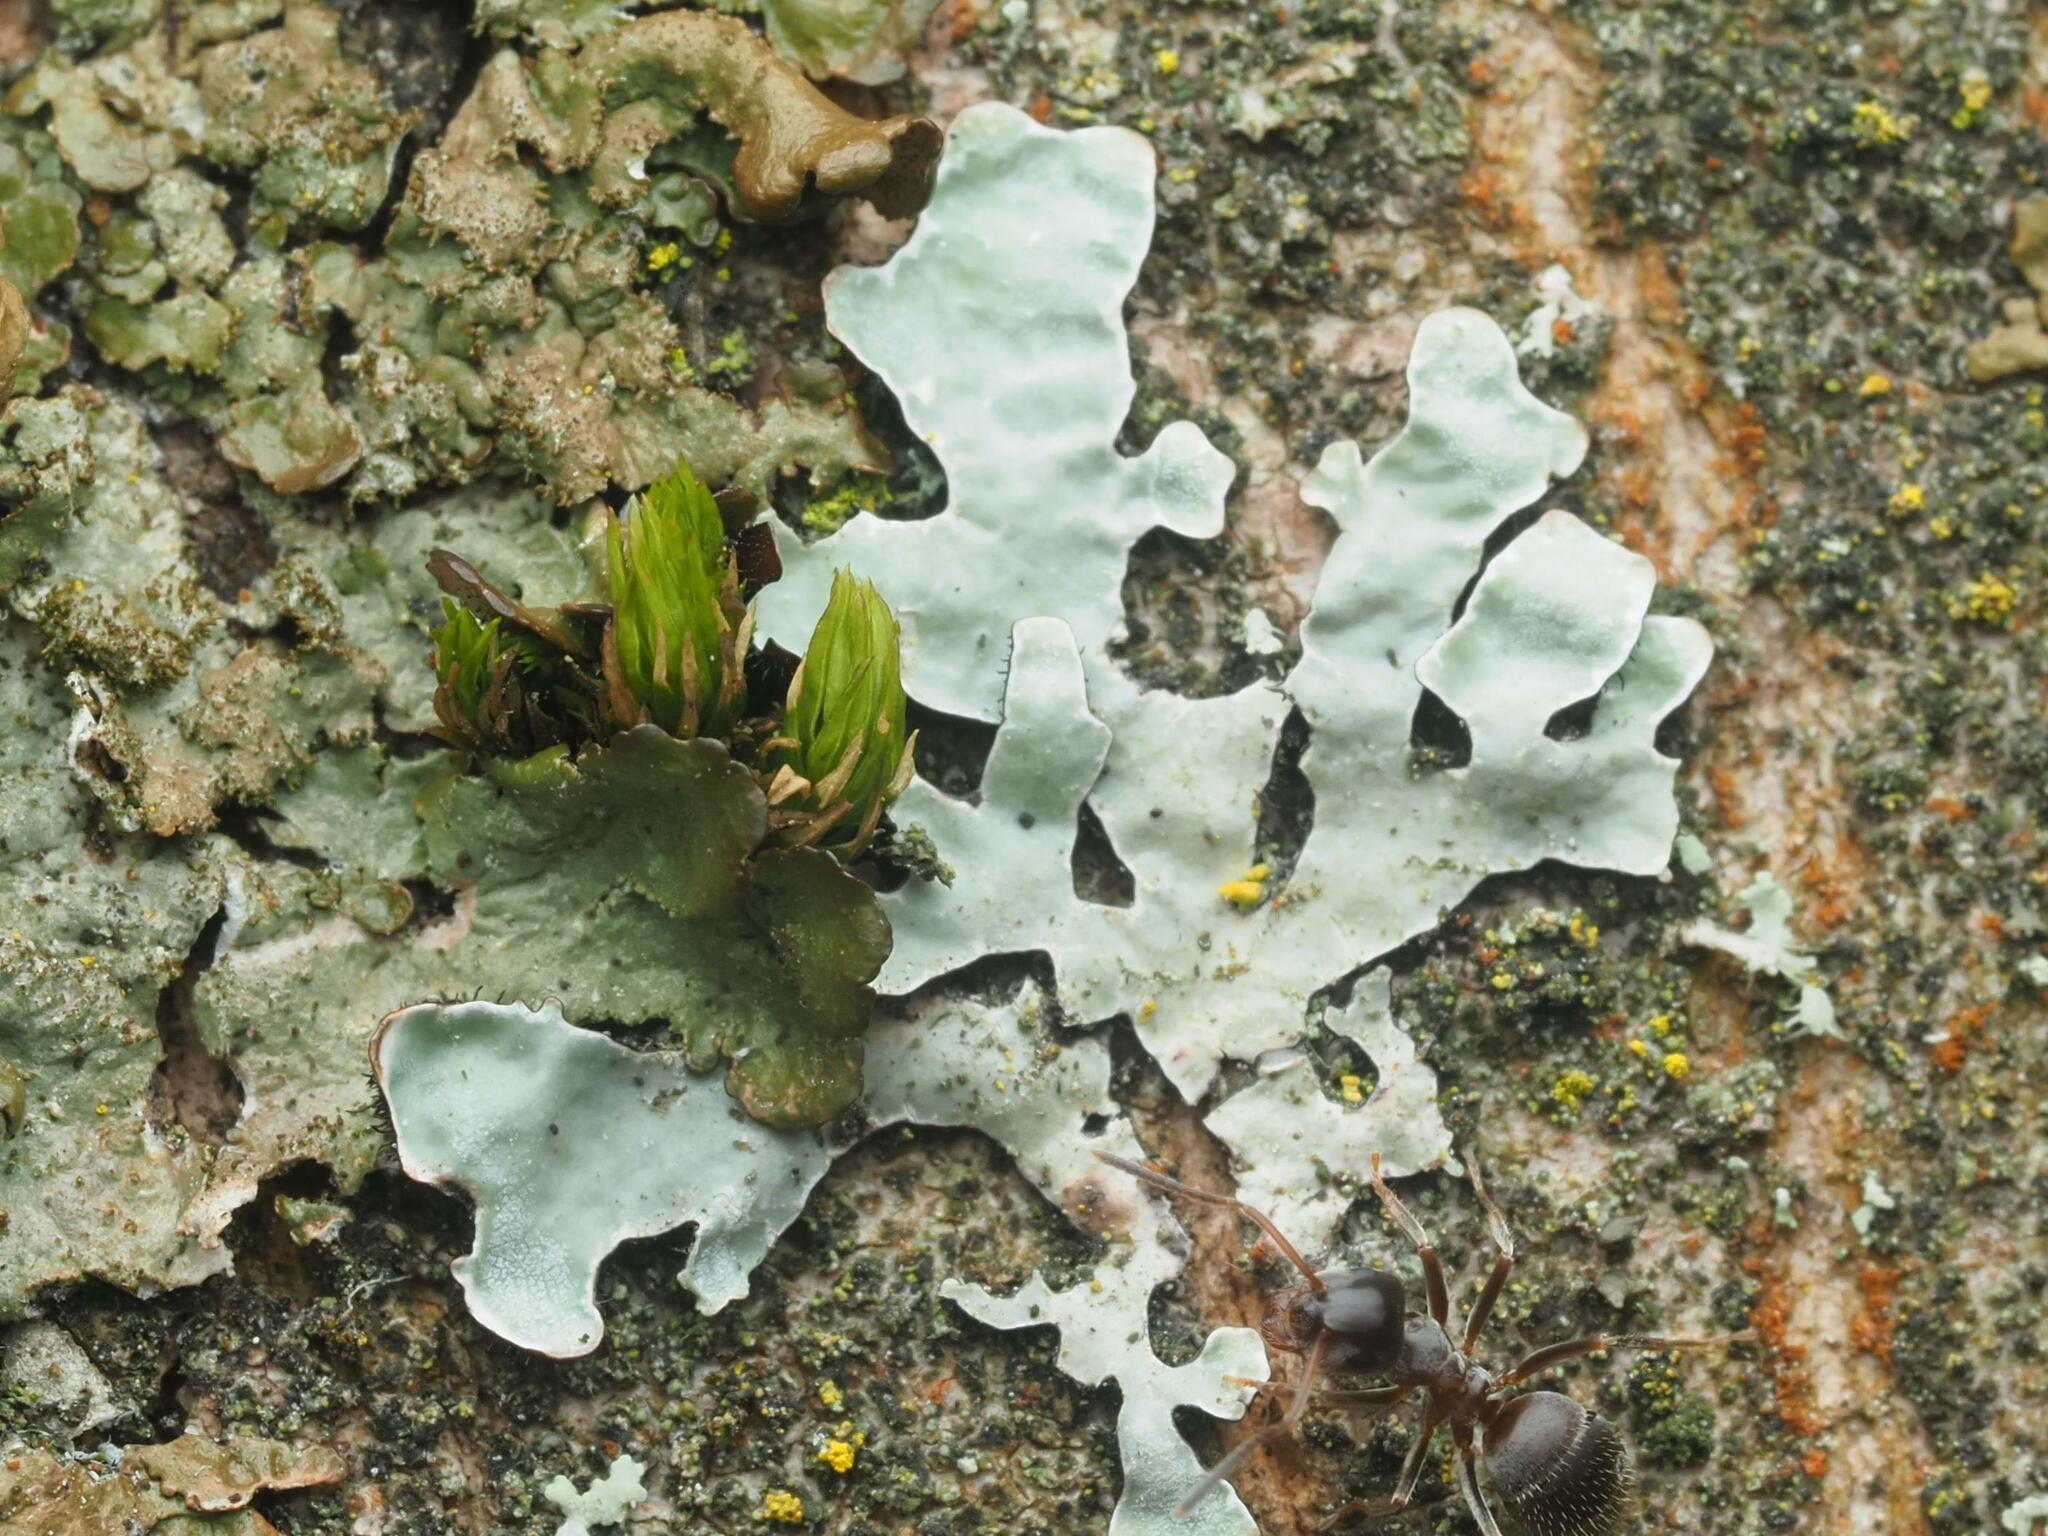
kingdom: Fungi
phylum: Ascomycota
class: Lecanoromycetes
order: Lecanorales
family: Parmeliaceae
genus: Parmelia
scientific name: Parmelia sulcata
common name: Netted shield lichen
